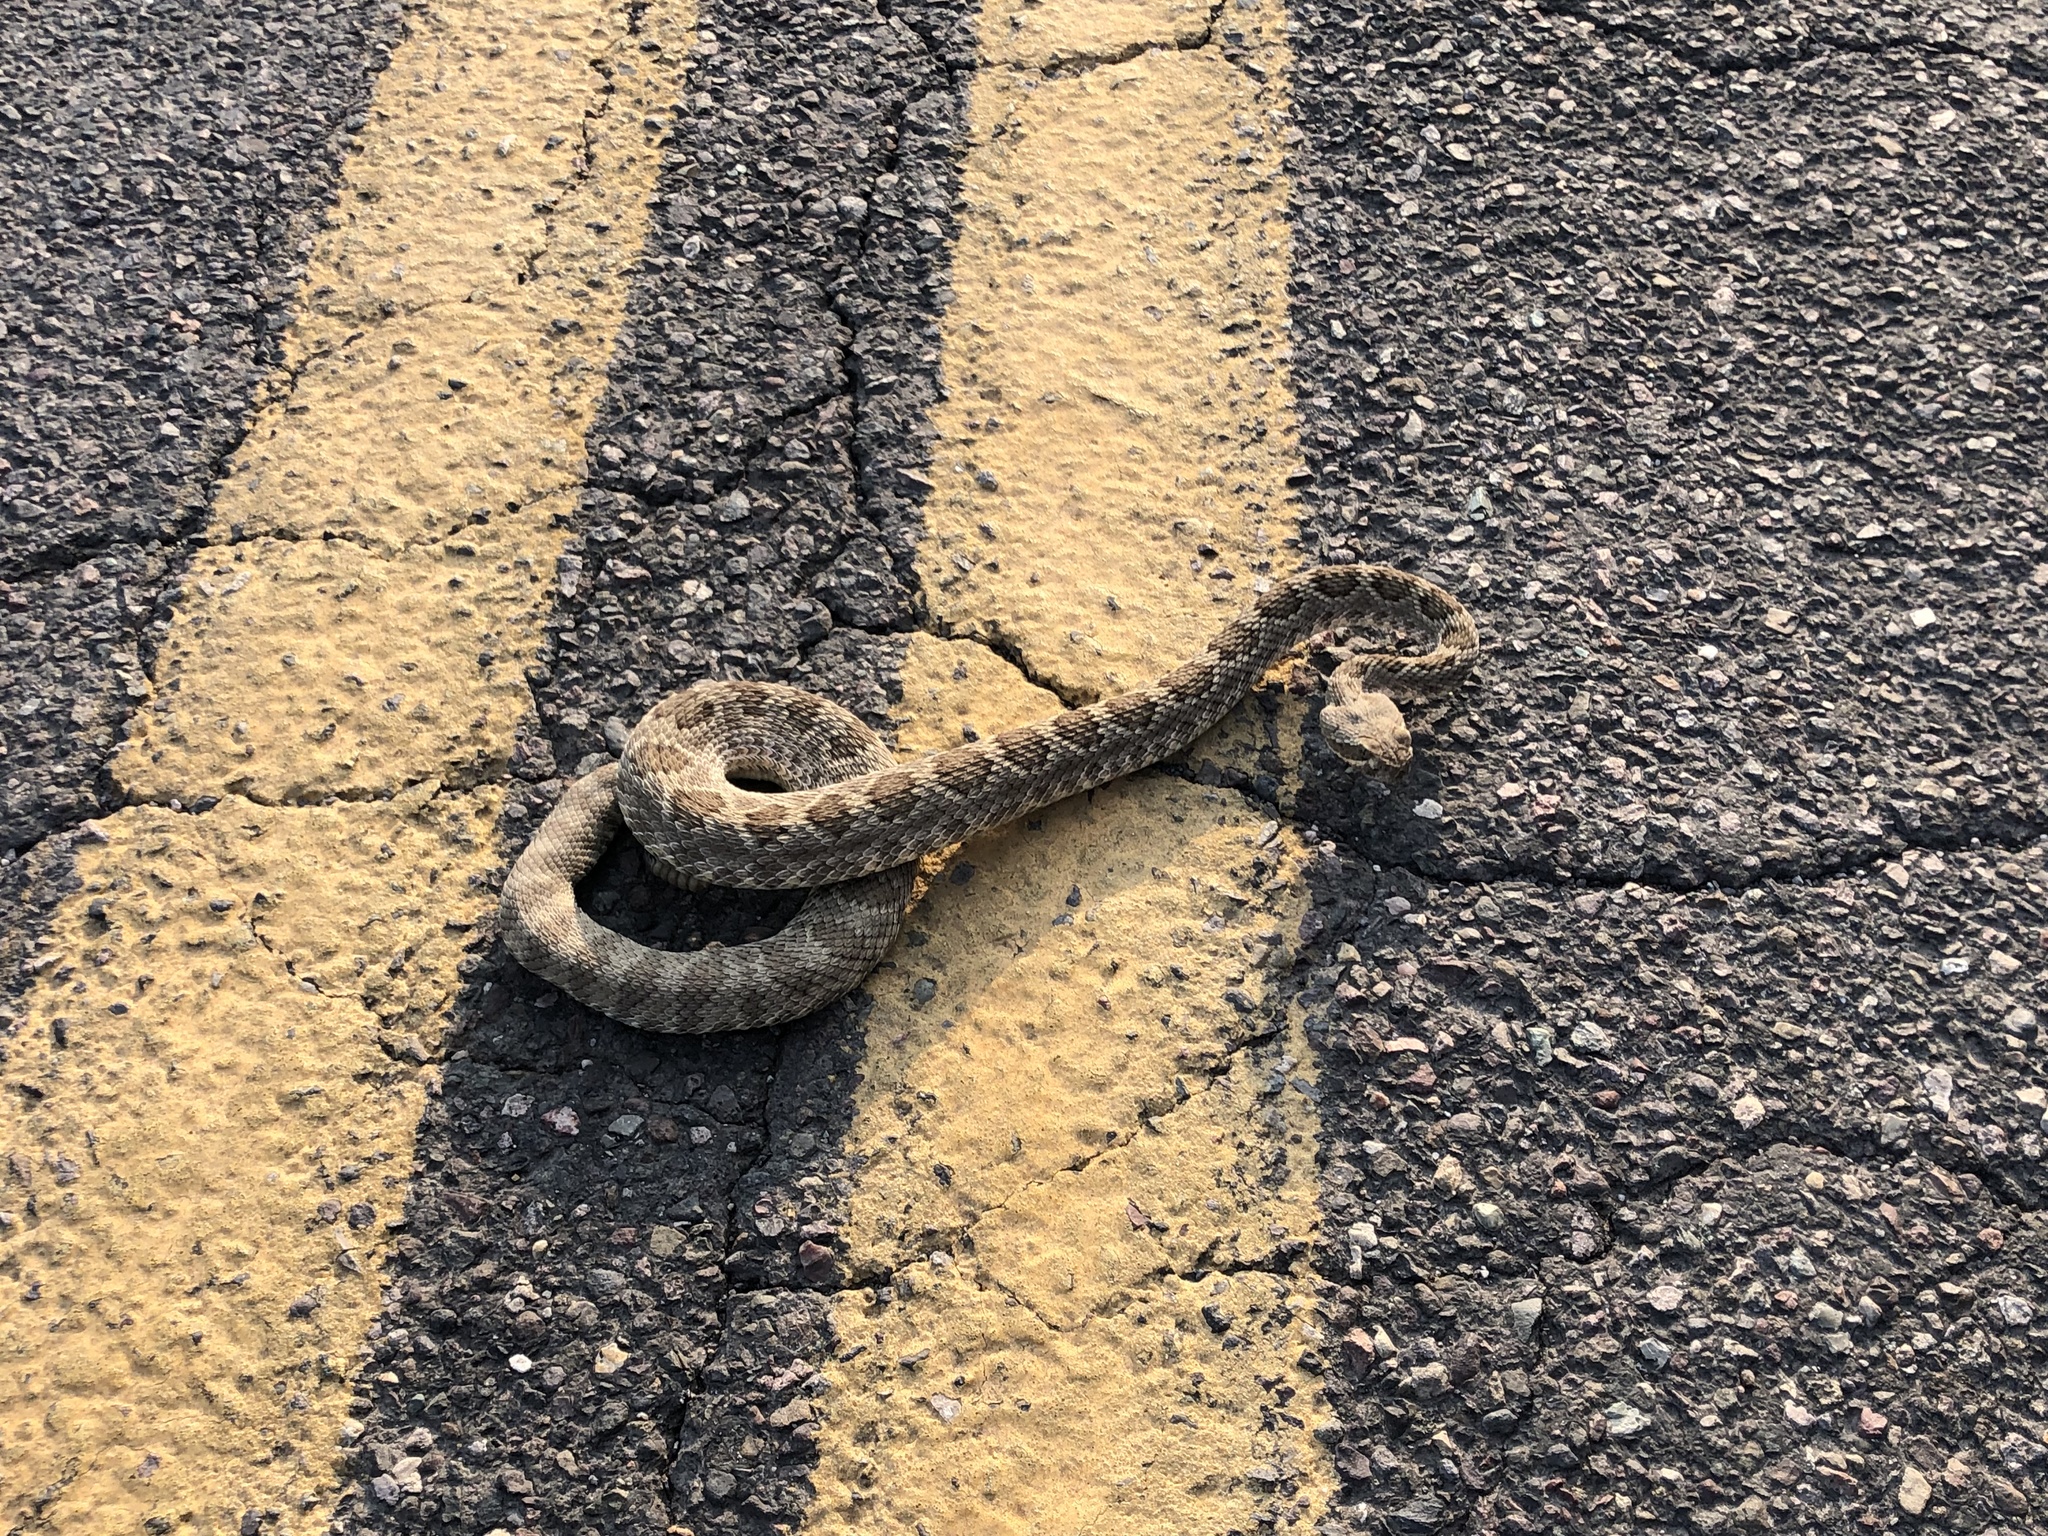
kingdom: Animalia
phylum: Chordata
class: Squamata
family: Viperidae
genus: Crotalus
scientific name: Crotalus scutulatus
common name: Scutulatus
